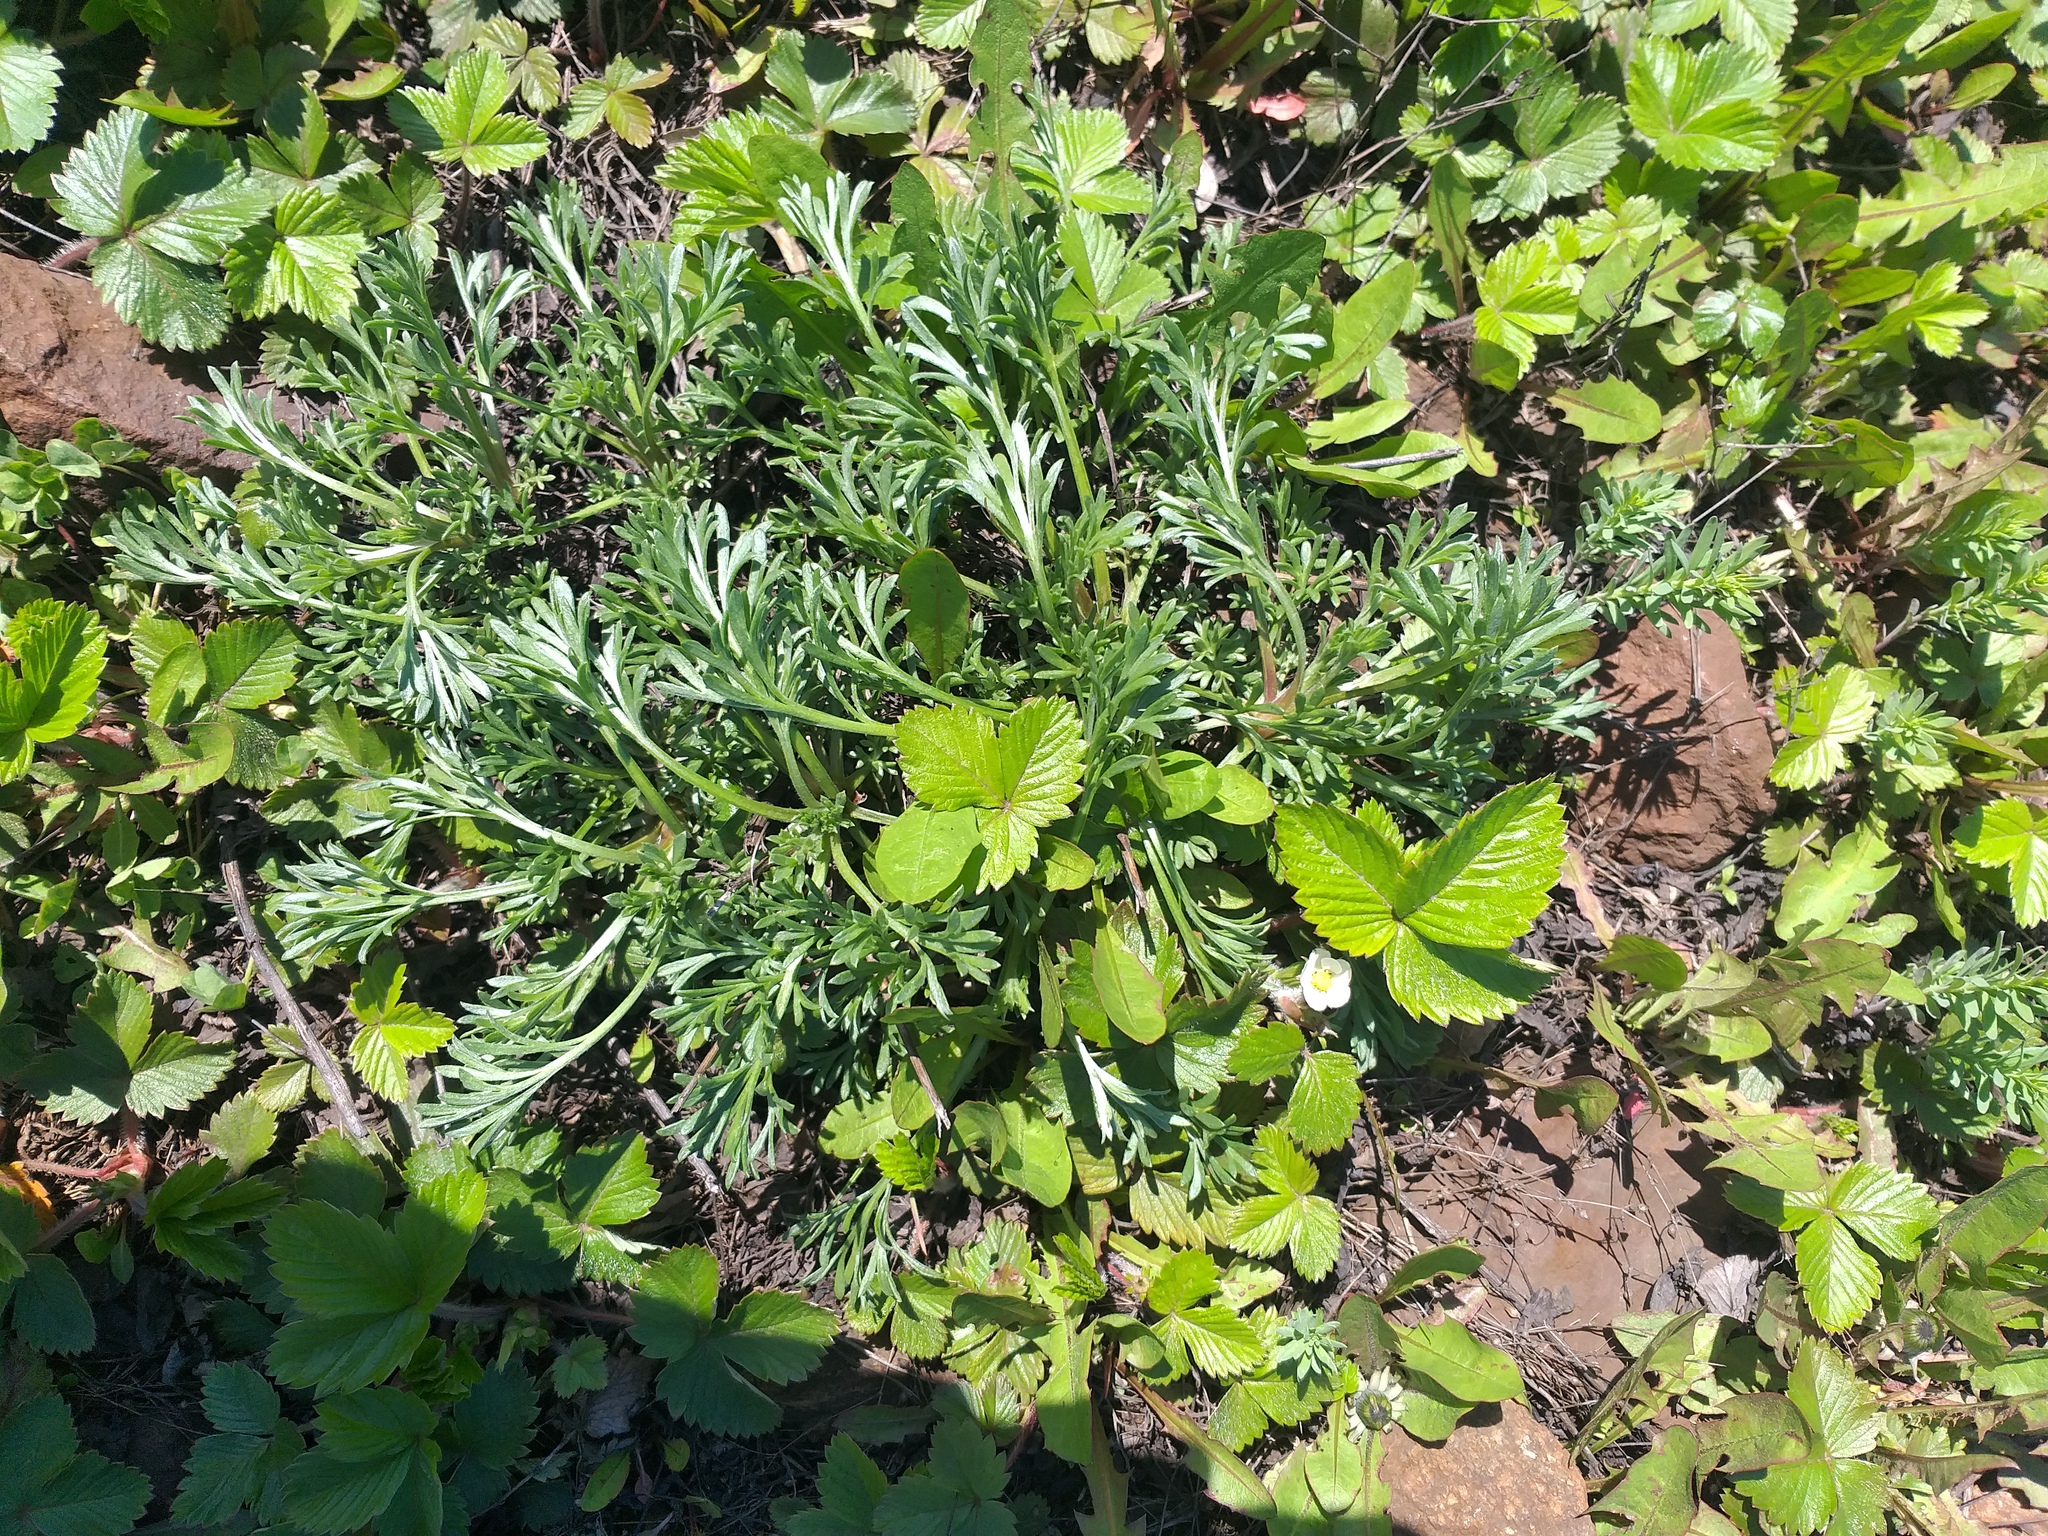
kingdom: Plantae
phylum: Tracheophyta
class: Magnoliopsida
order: Asterales
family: Asteraceae
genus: Artemisia
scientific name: Artemisia campestris
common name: Field wormwood
